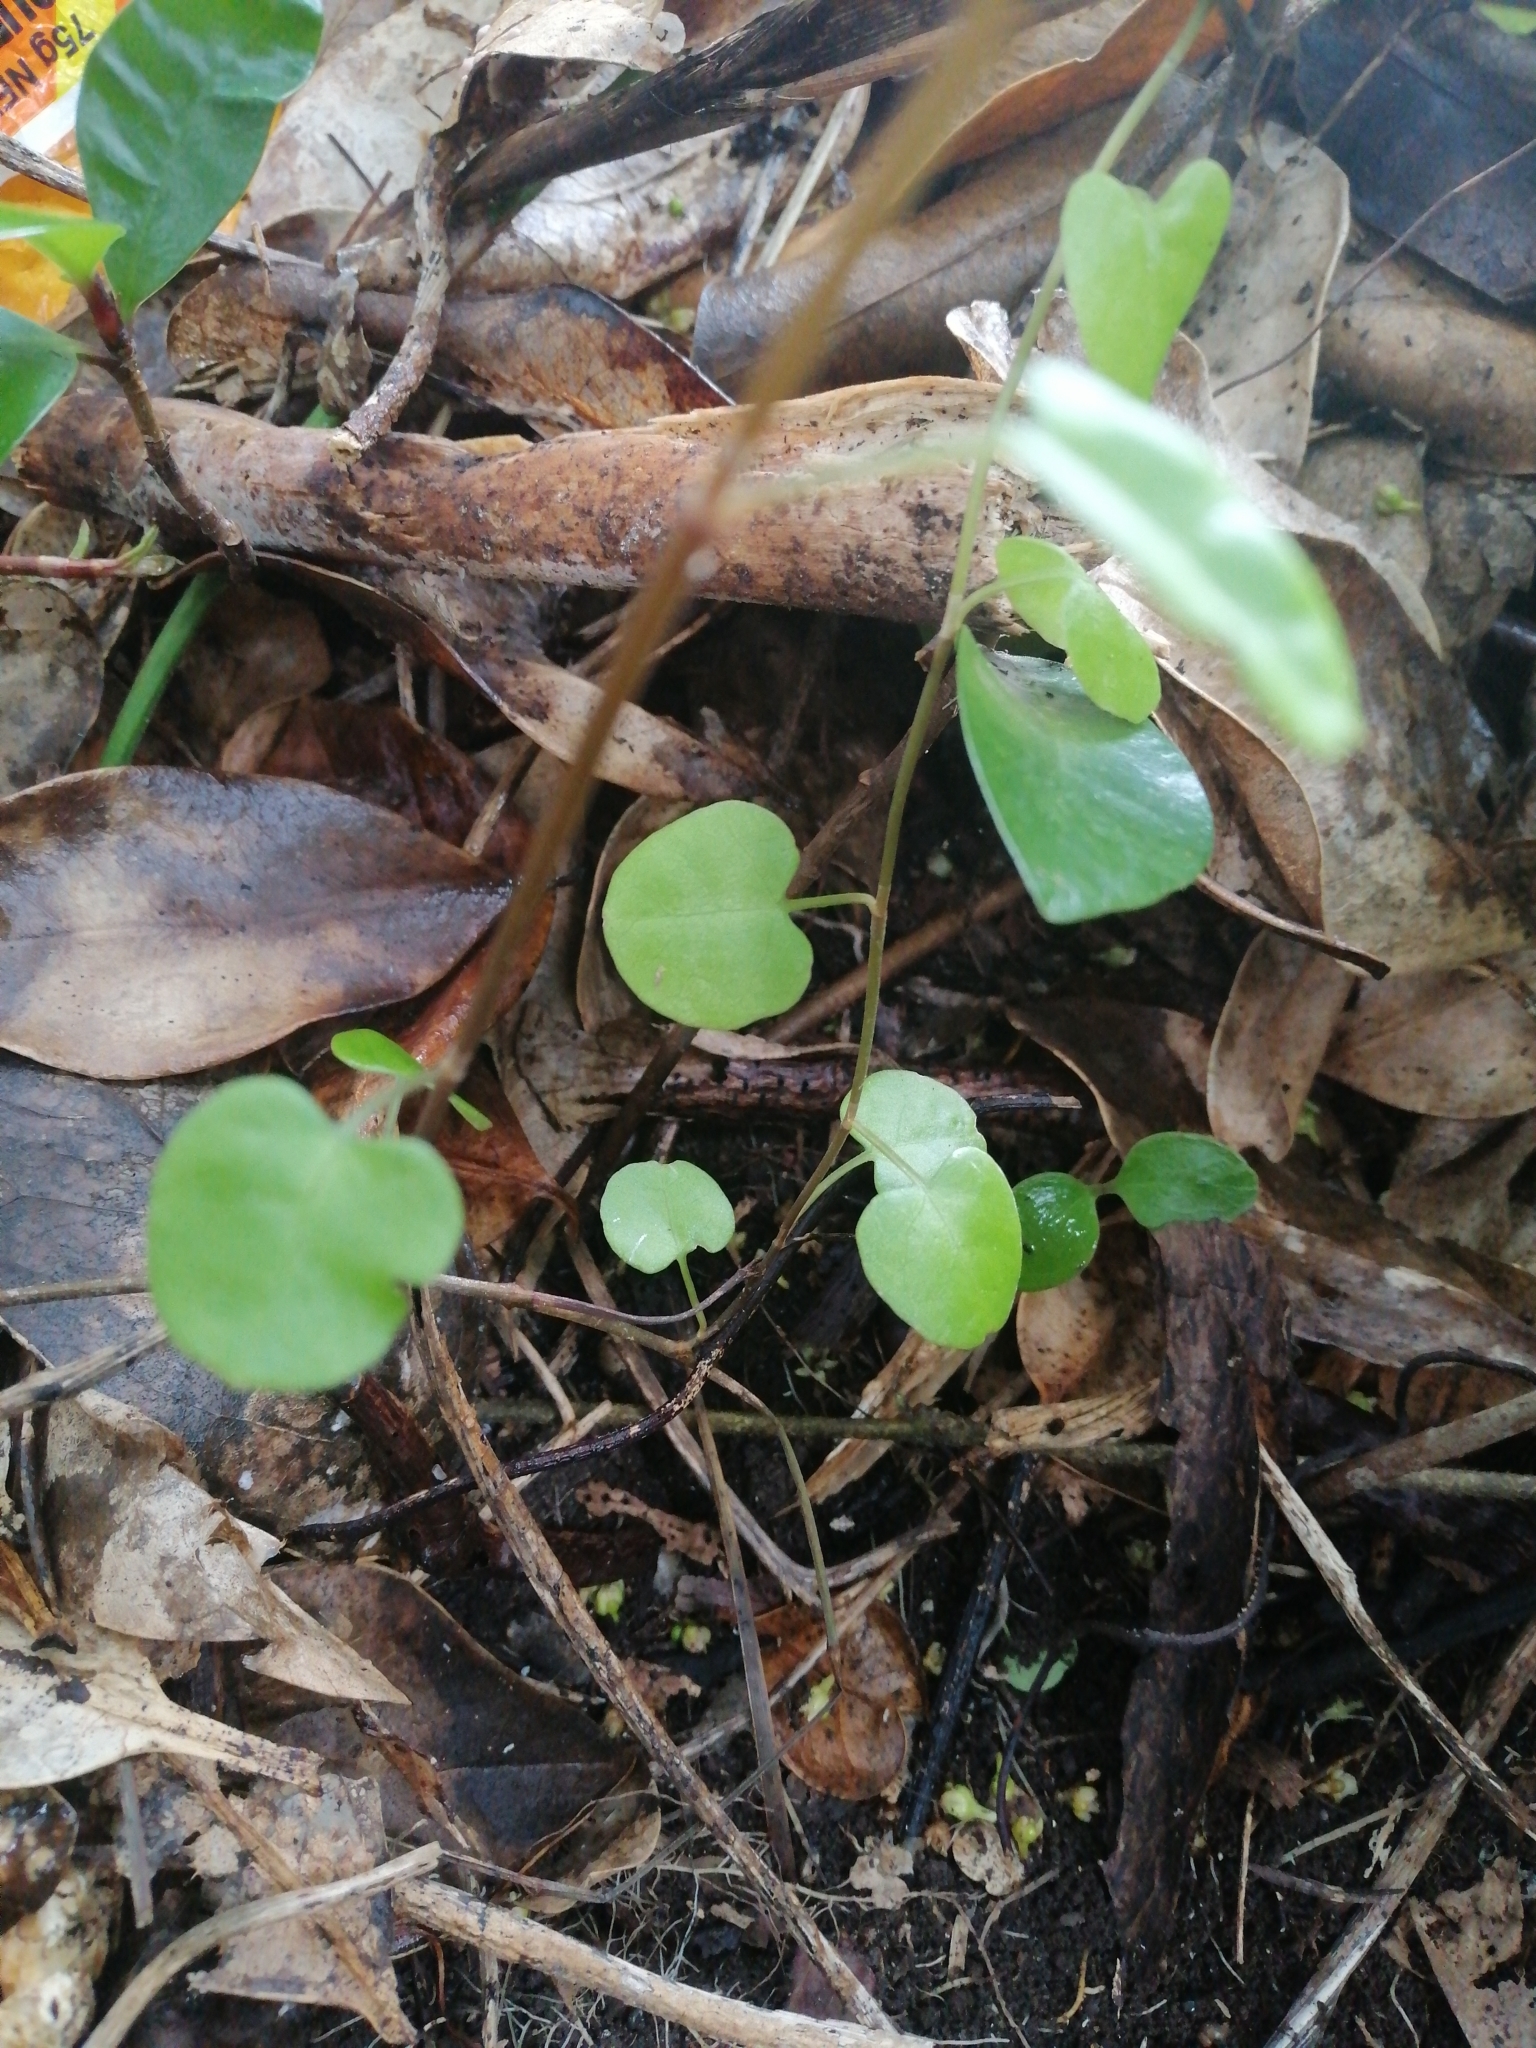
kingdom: Plantae
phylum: Tracheophyta
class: Magnoliopsida
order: Caryophyllales
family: Polygonaceae
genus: Muehlenbeckia
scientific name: Muehlenbeckia australis
